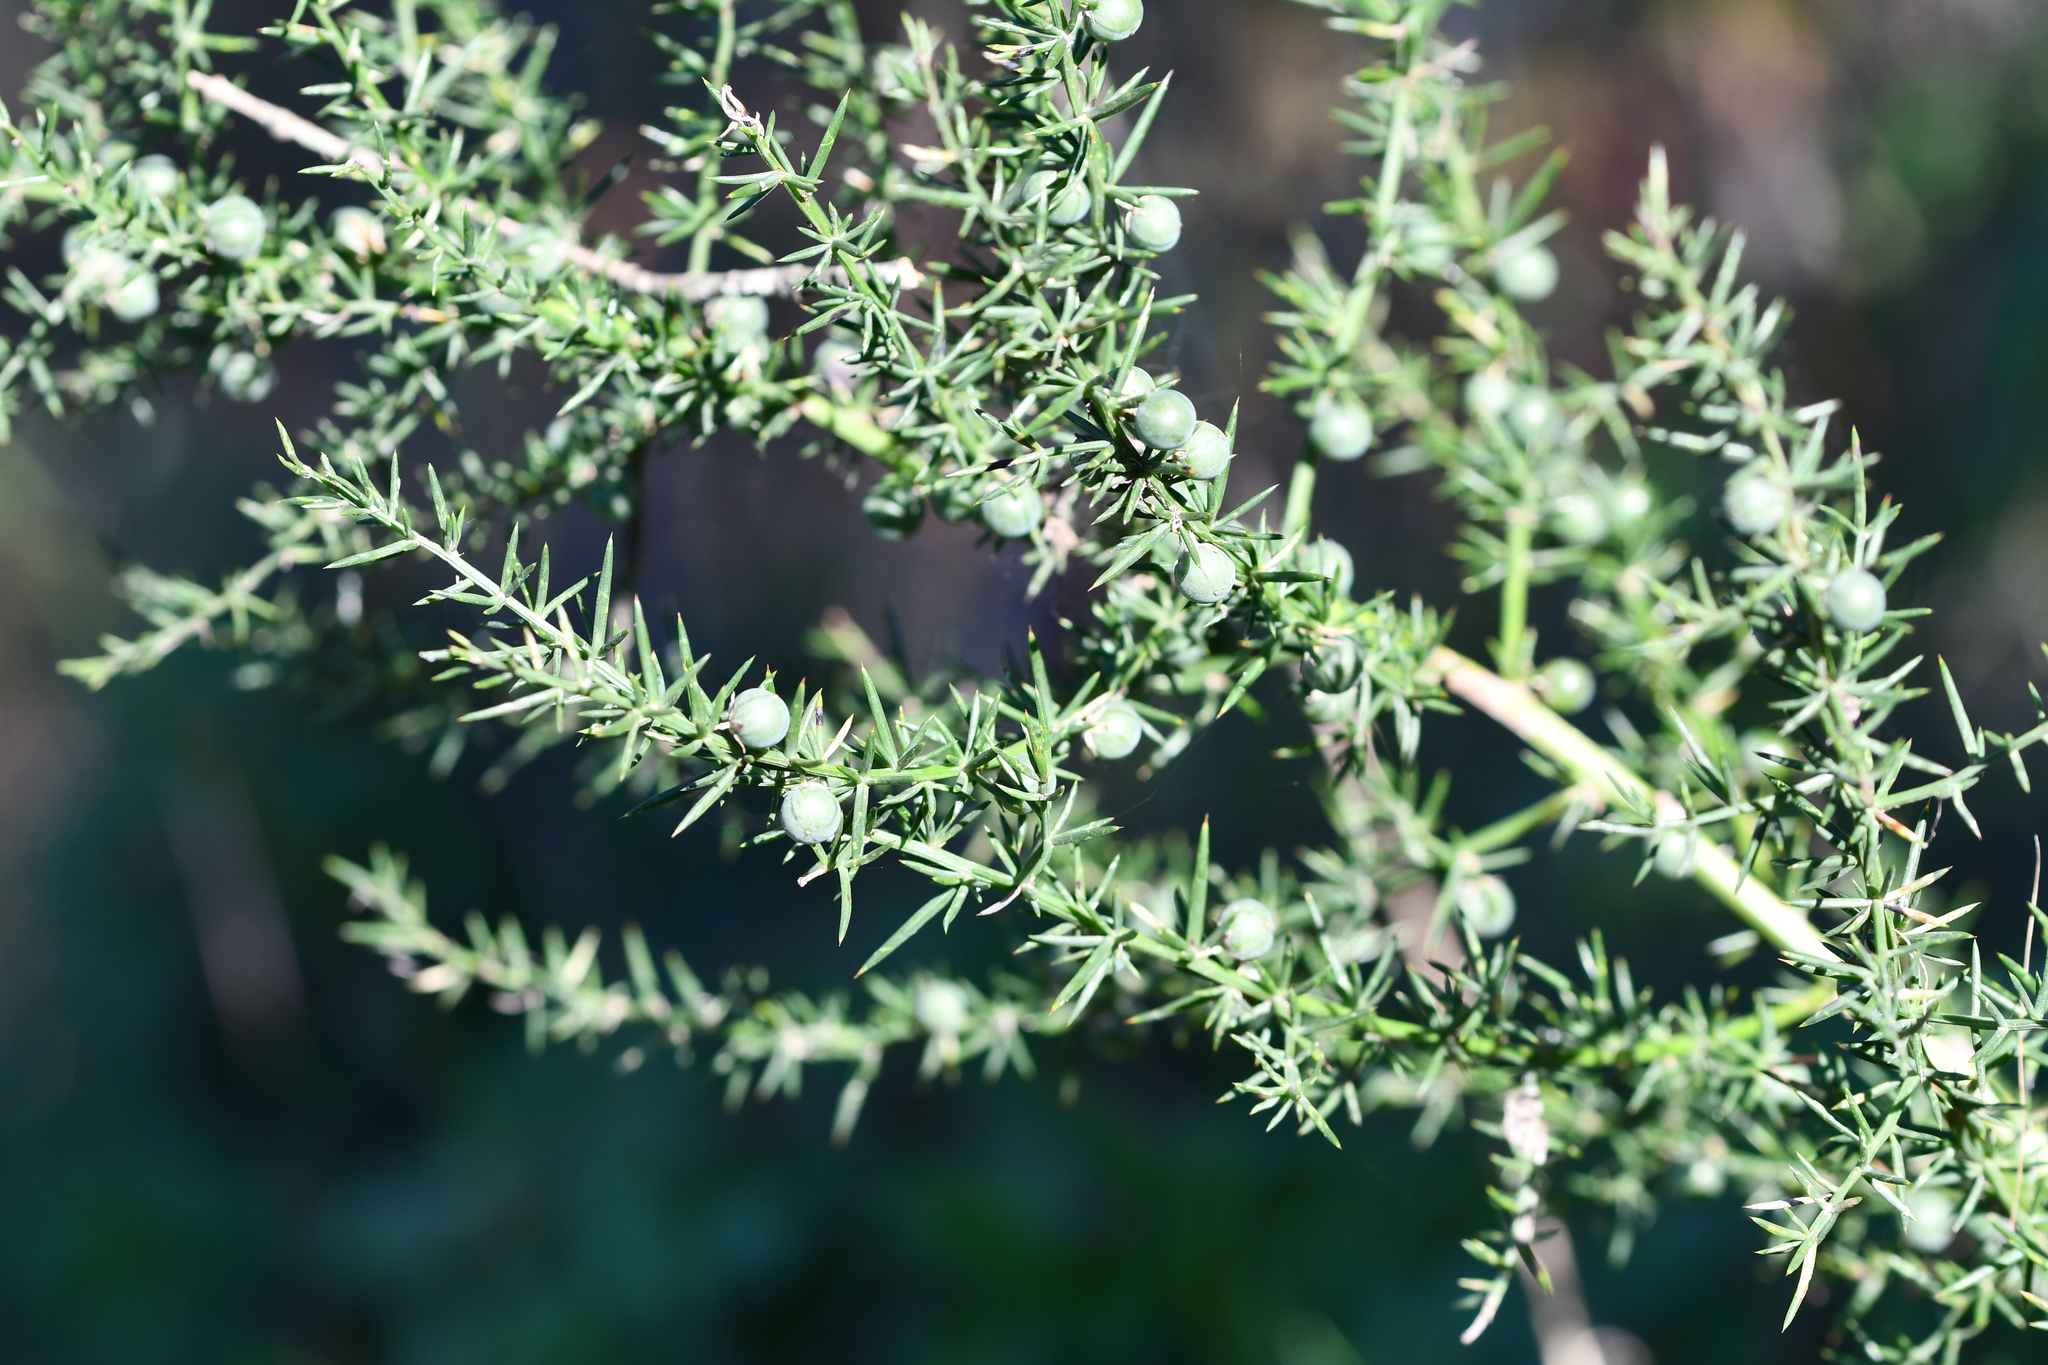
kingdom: Plantae
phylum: Tracheophyta
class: Liliopsida
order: Asparagales
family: Asparagaceae
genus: Asparagus
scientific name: Asparagus aphyllus
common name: Mediterranean asparagus
